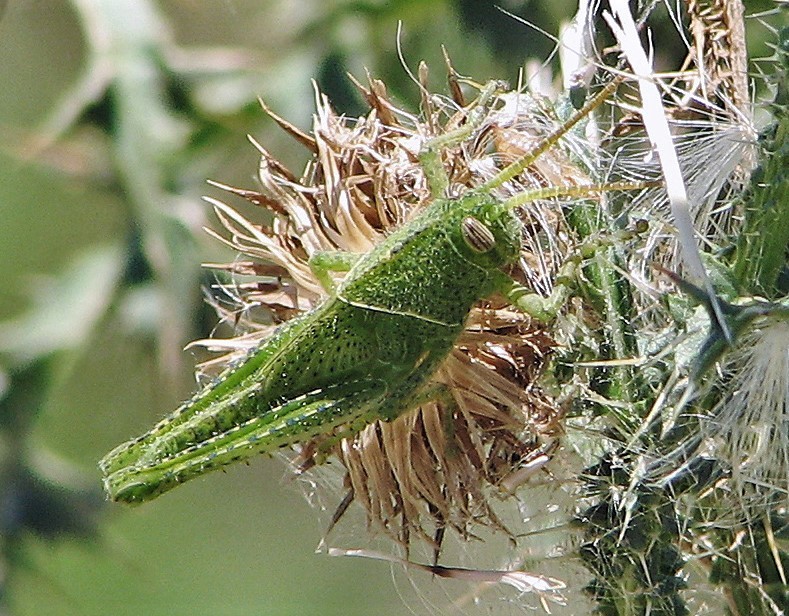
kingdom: Animalia
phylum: Arthropoda
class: Insecta
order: Orthoptera
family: Acrididae
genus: Schistocerca
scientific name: Schistocerca flavofasciata
